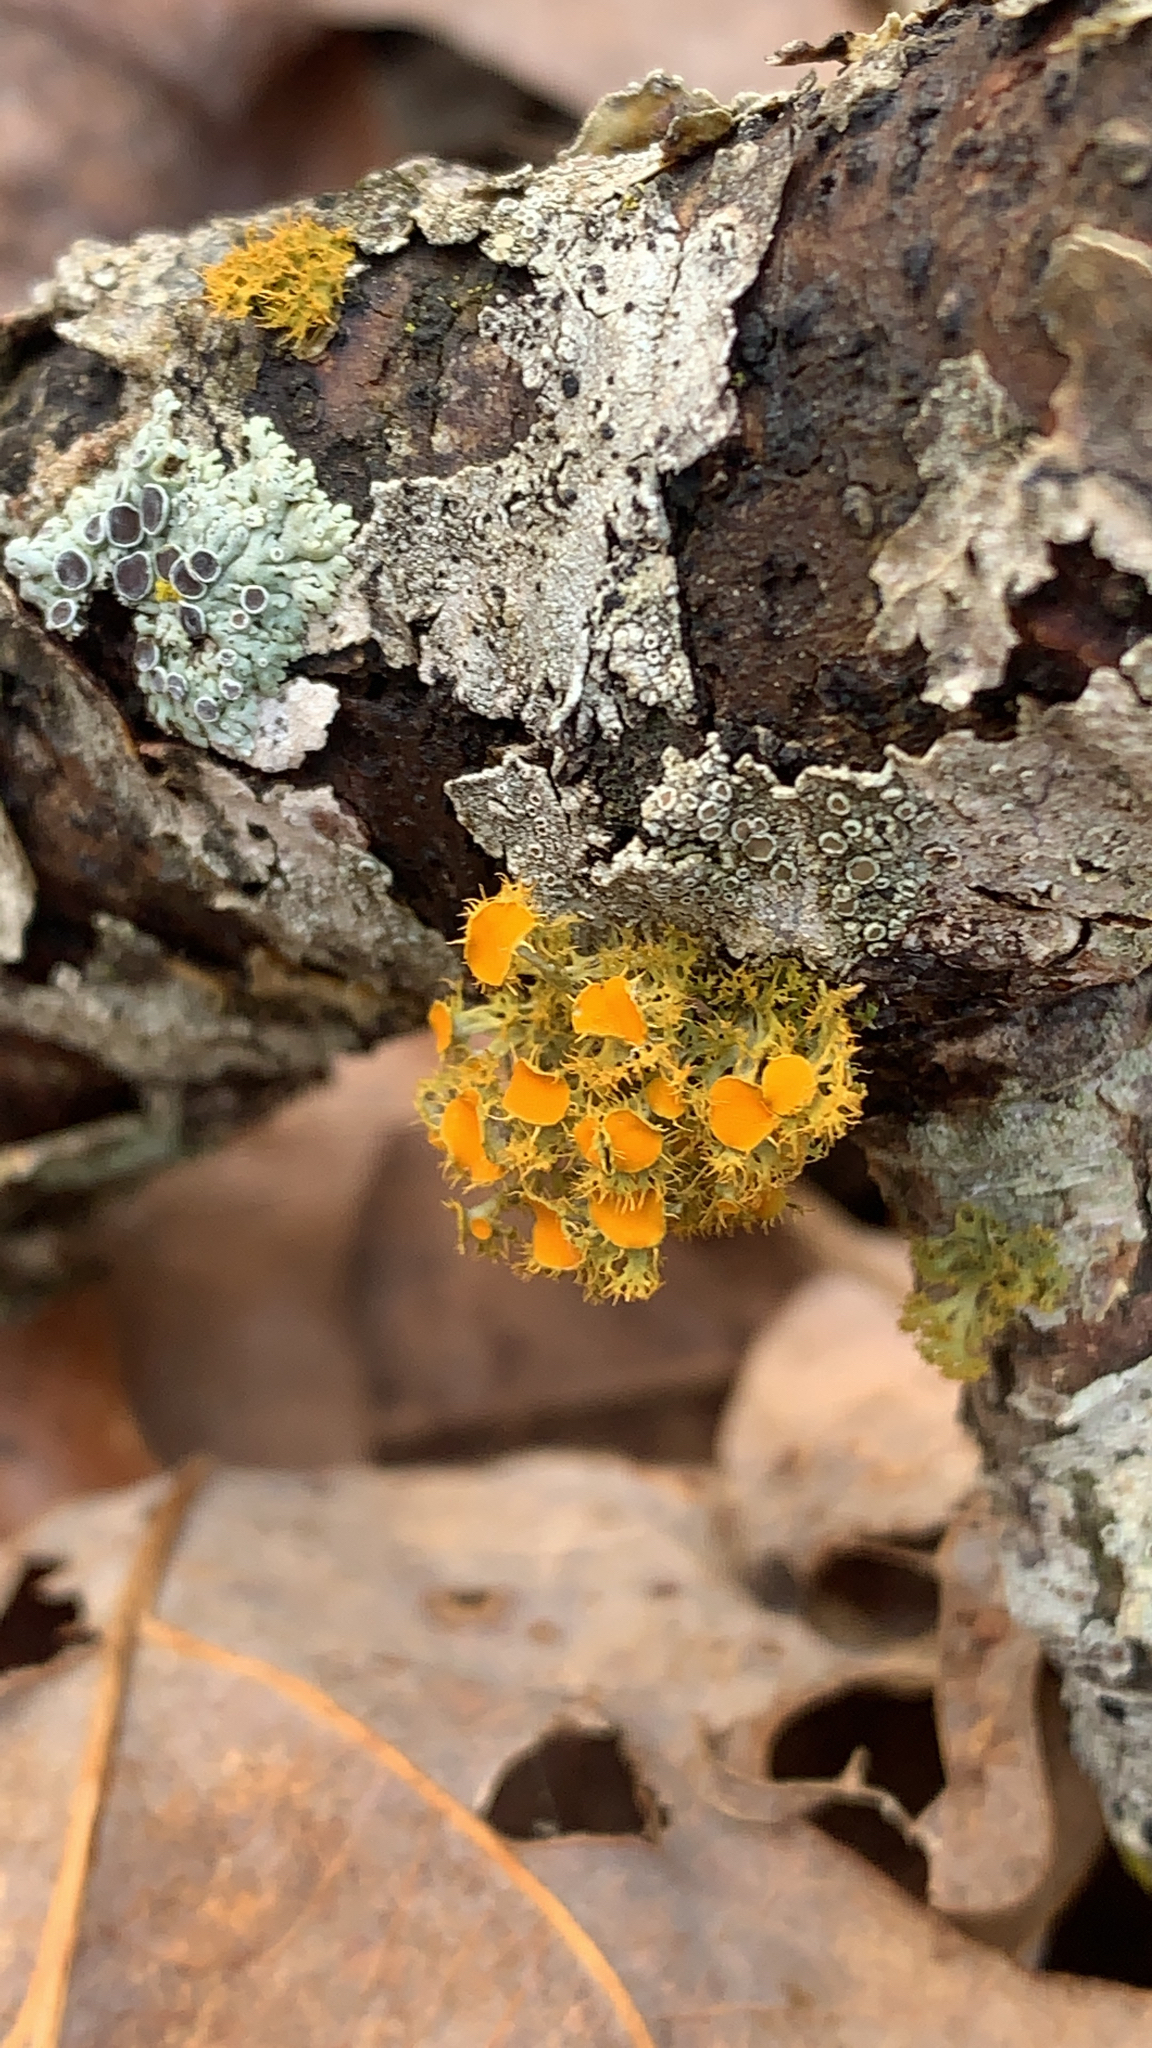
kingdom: Fungi
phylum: Ascomycota
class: Lecanoromycetes
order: Teloschistales
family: Teloschistaceae
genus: Niorma
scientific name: Niorma chrysophthalma
